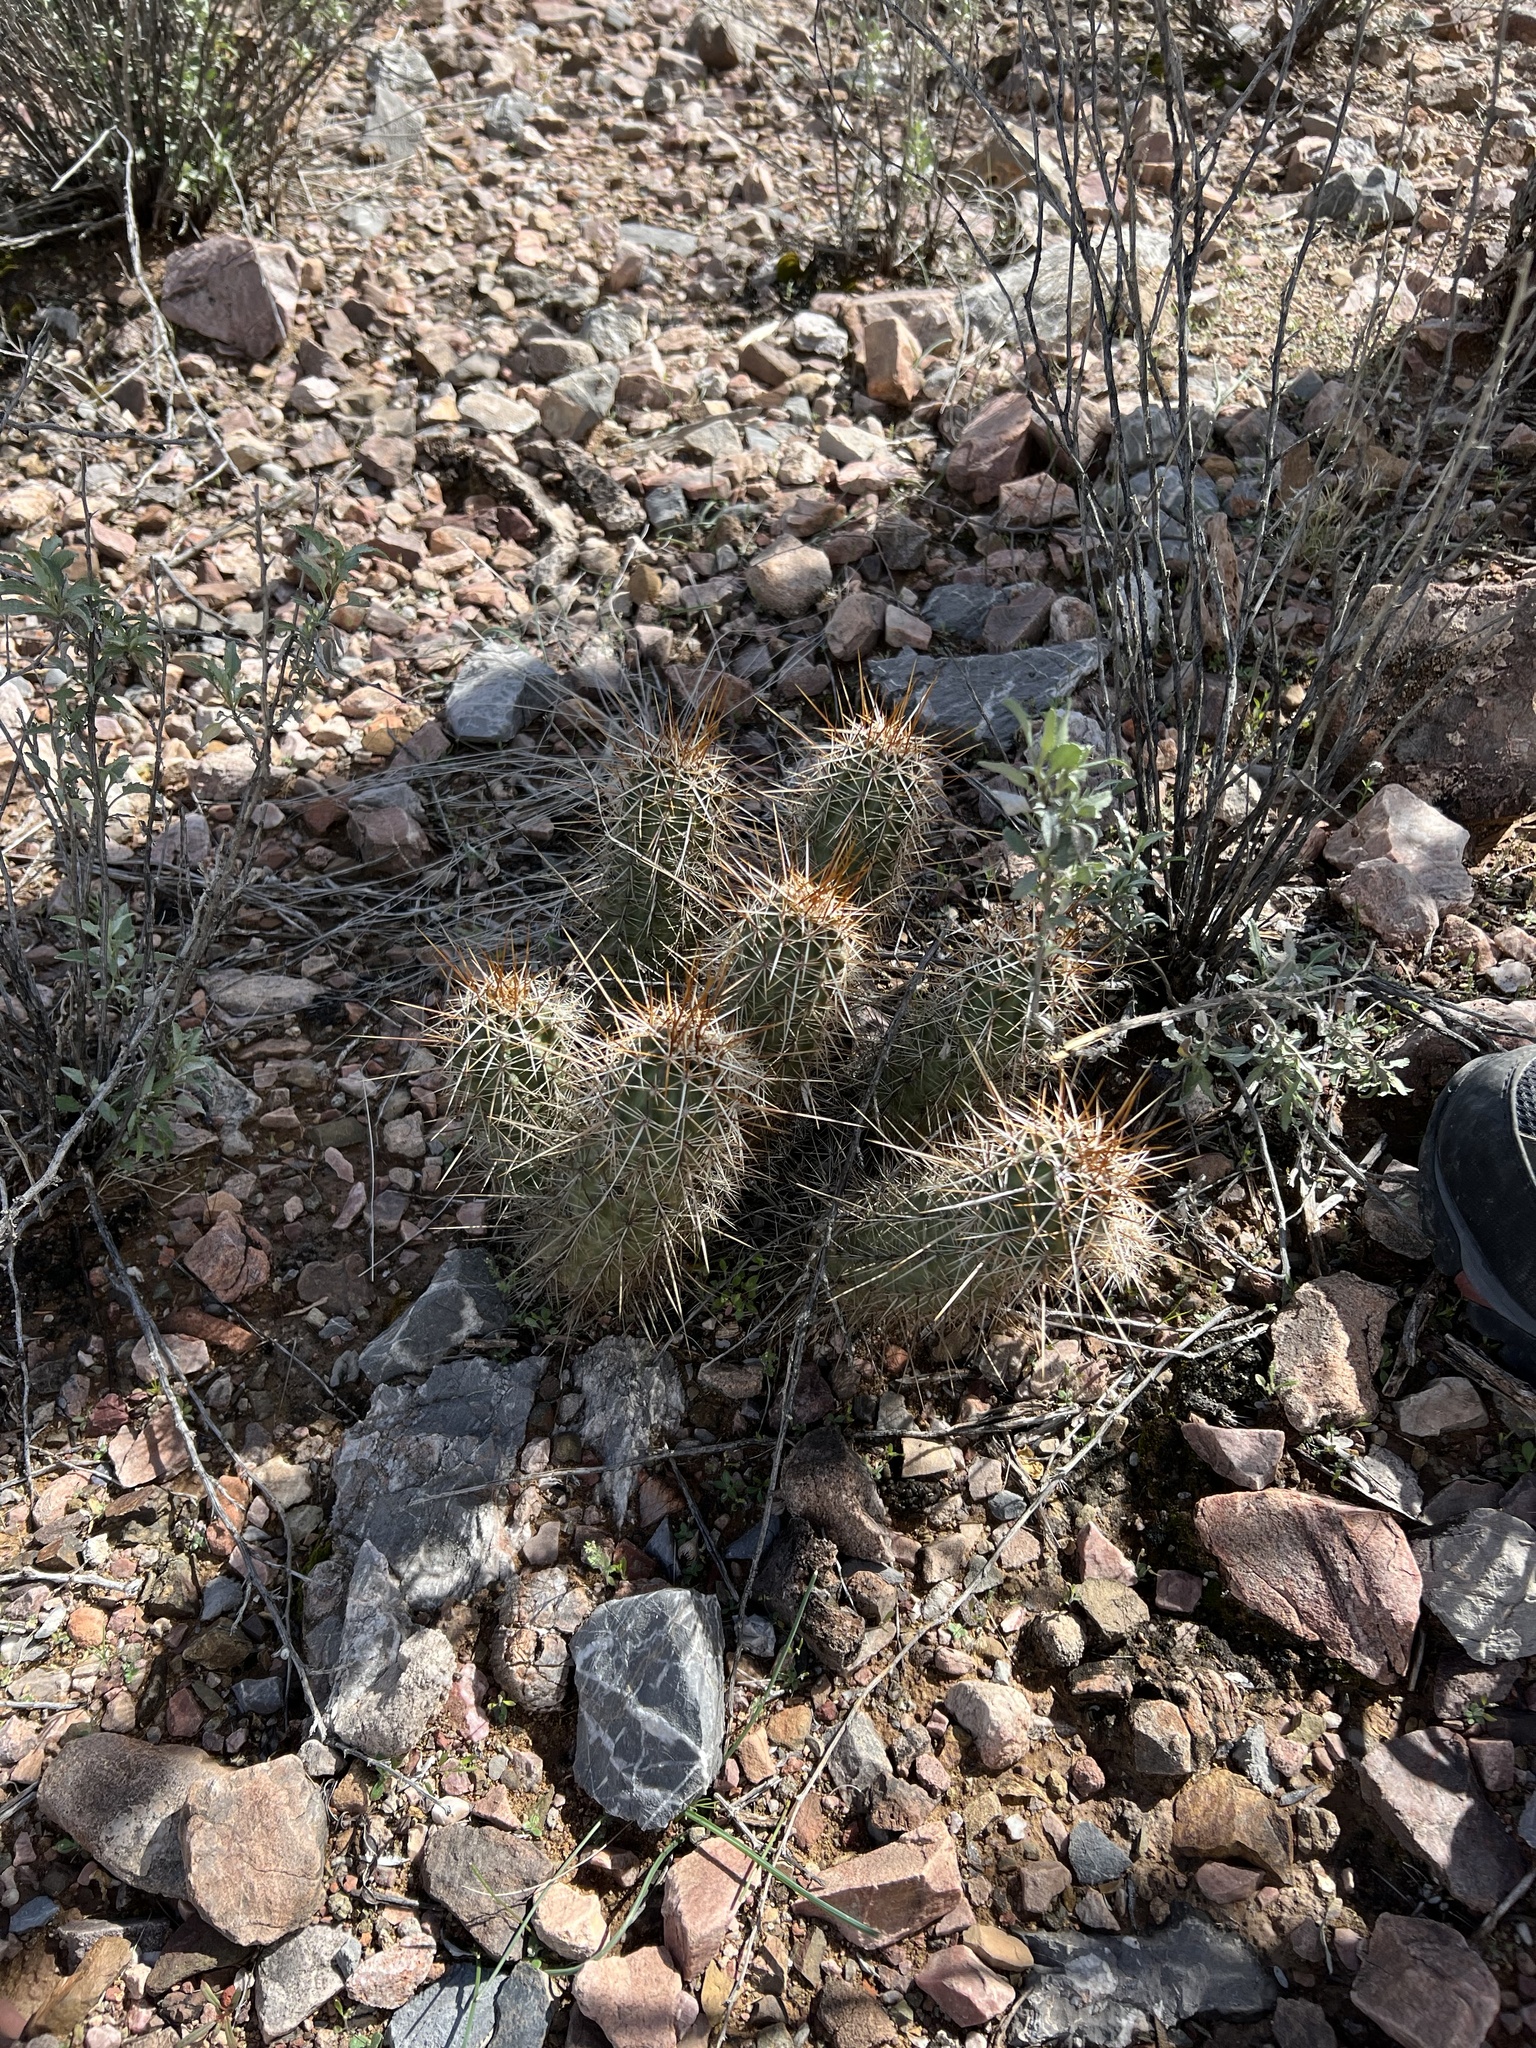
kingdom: Plantae
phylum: Tracheophyta
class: Magnoliopsida
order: Caryophyllales
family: Cactaceae
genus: Echinocereus
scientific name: Echinocereus fasciculatus
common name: Bundle hedgehog
